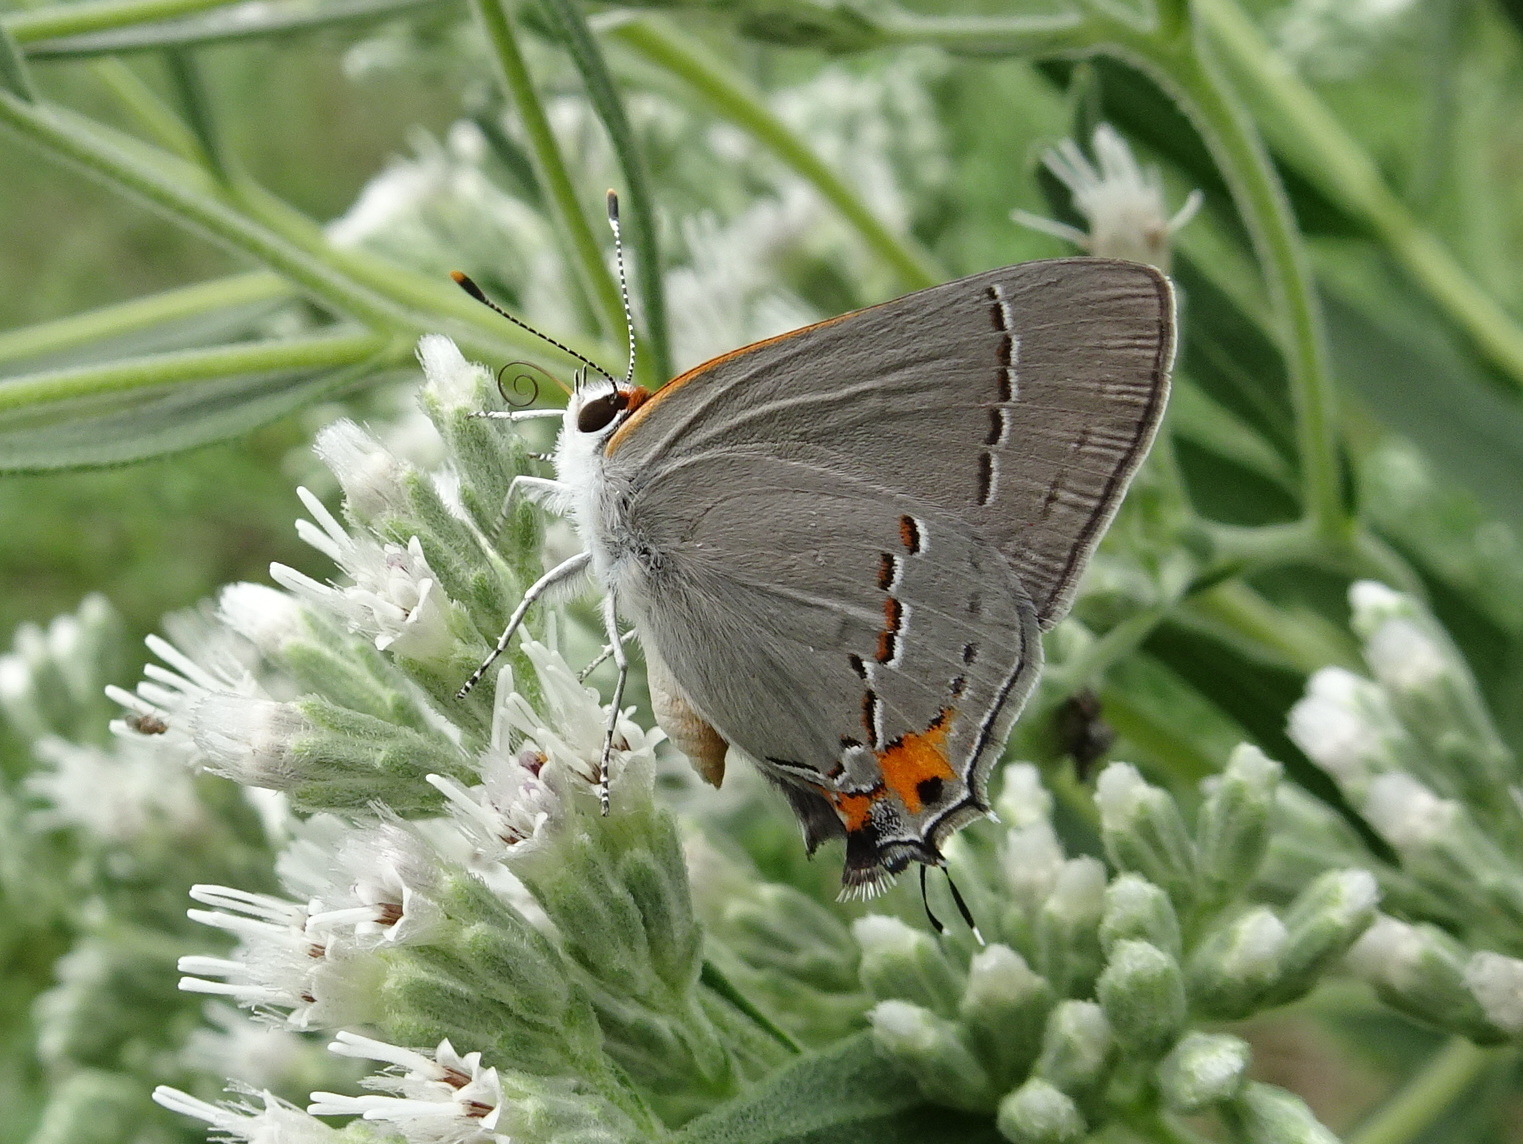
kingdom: Animalia
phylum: Arthropoda
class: Insecta
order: Lepidoptera
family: Lycaenidae
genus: Strymon
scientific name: Strymon melinus
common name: Gray hairstreak
